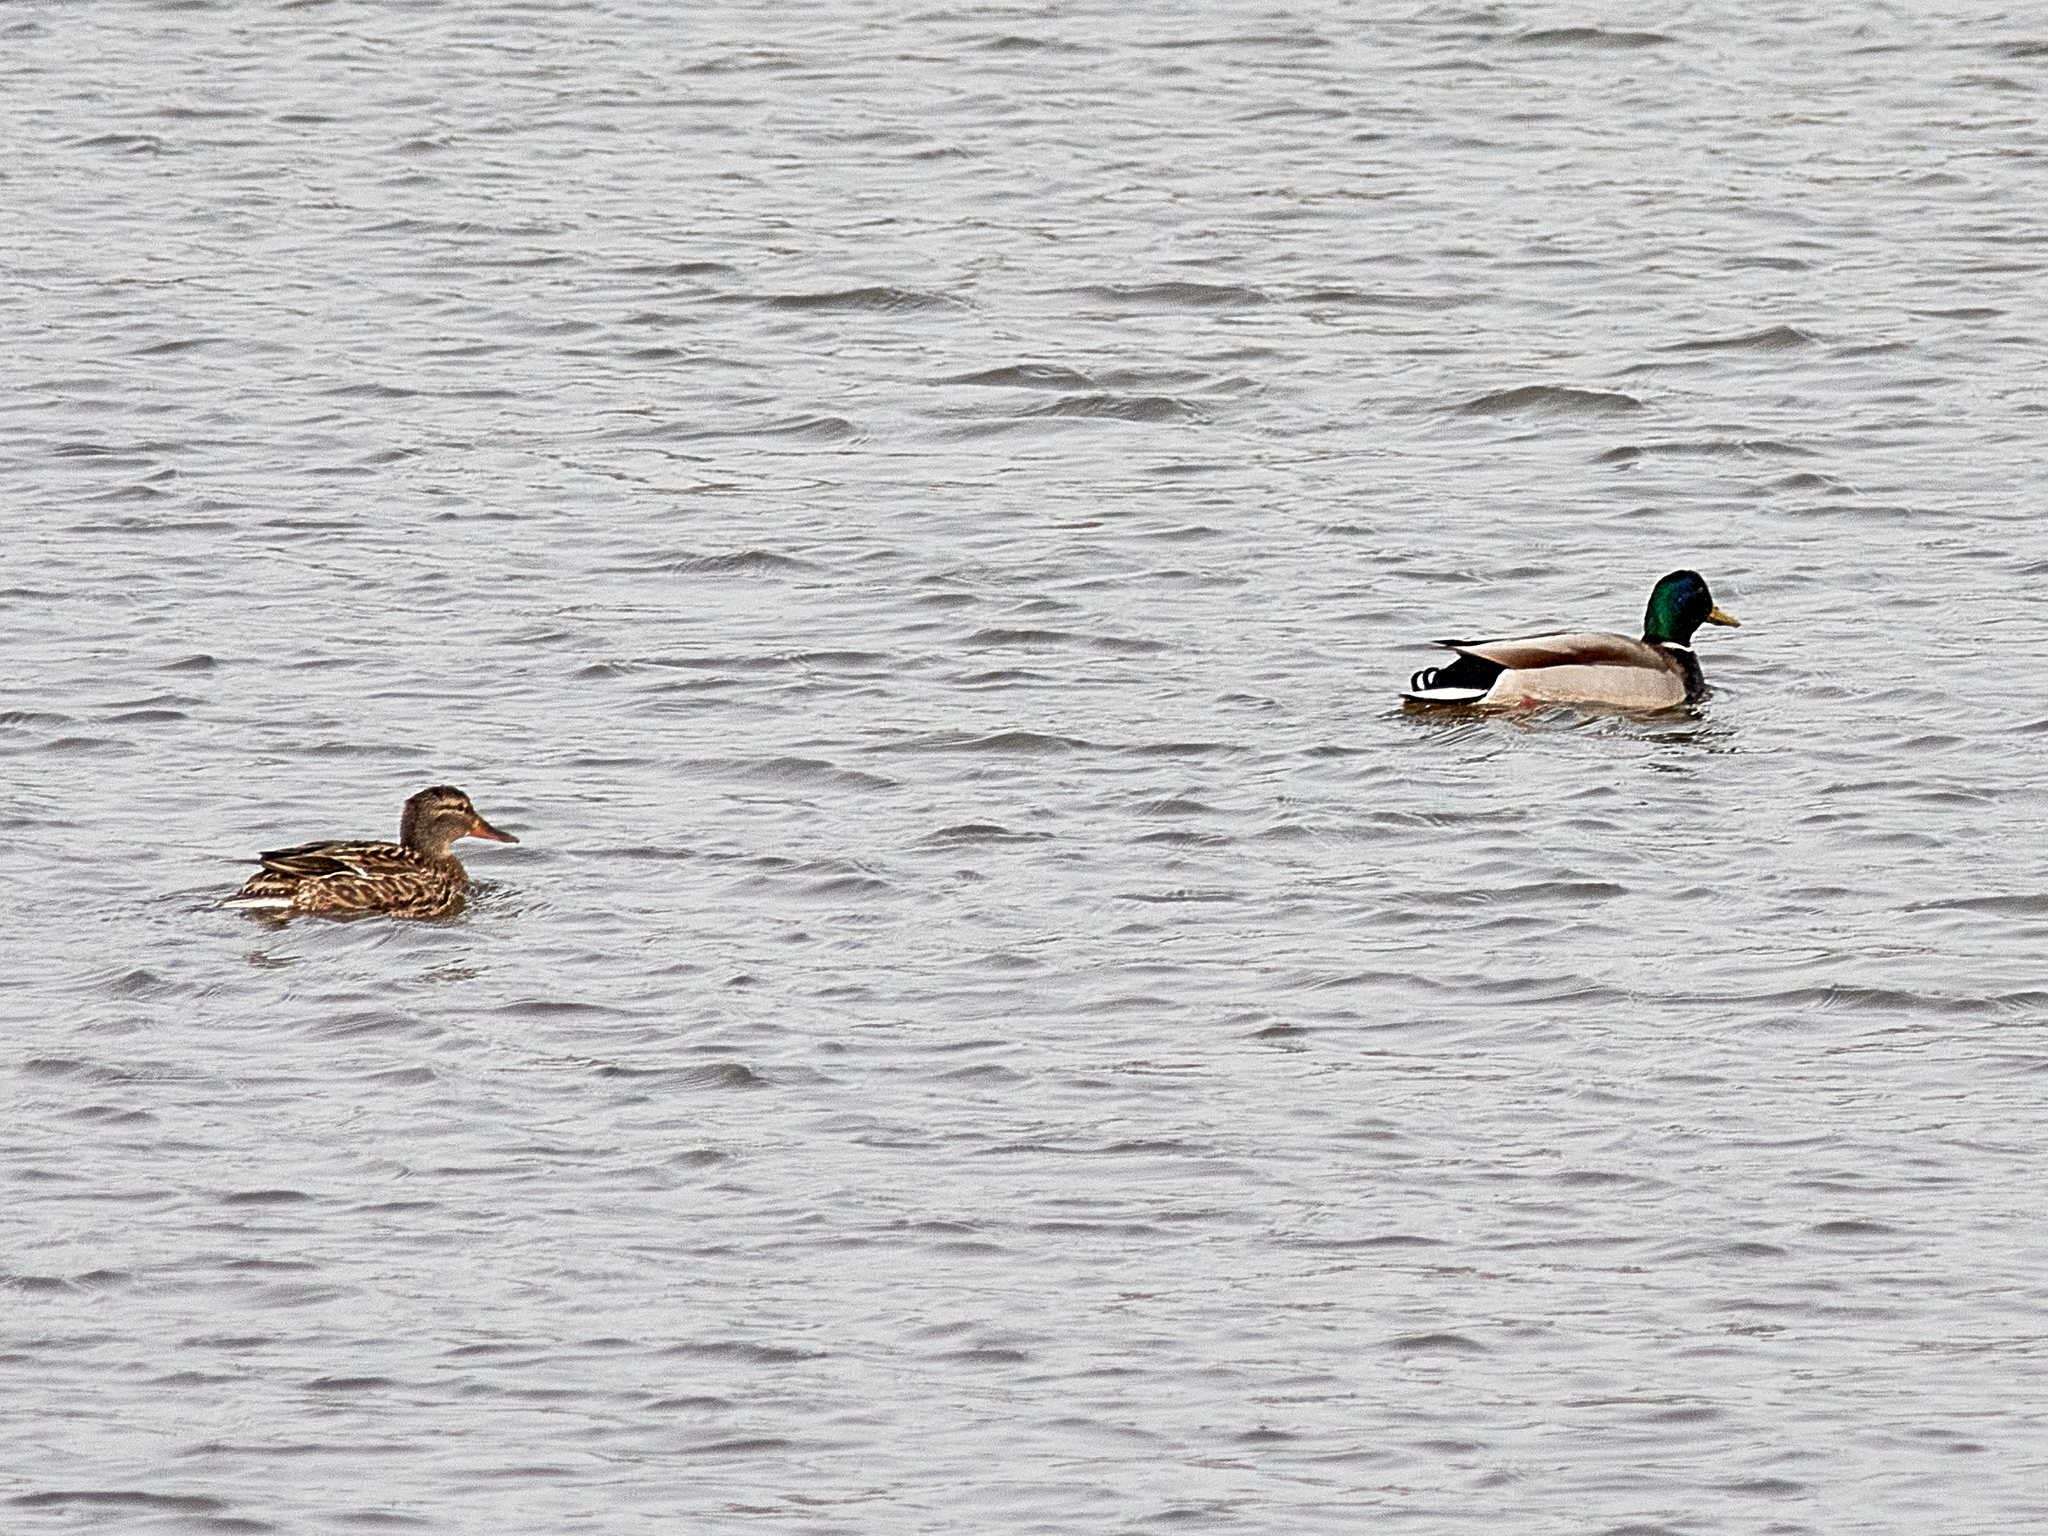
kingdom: Animalia
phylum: Chordata
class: Aves
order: Anseriformes
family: Anatidae
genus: Anas
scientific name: Anas platyrhynchos
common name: Mallard
